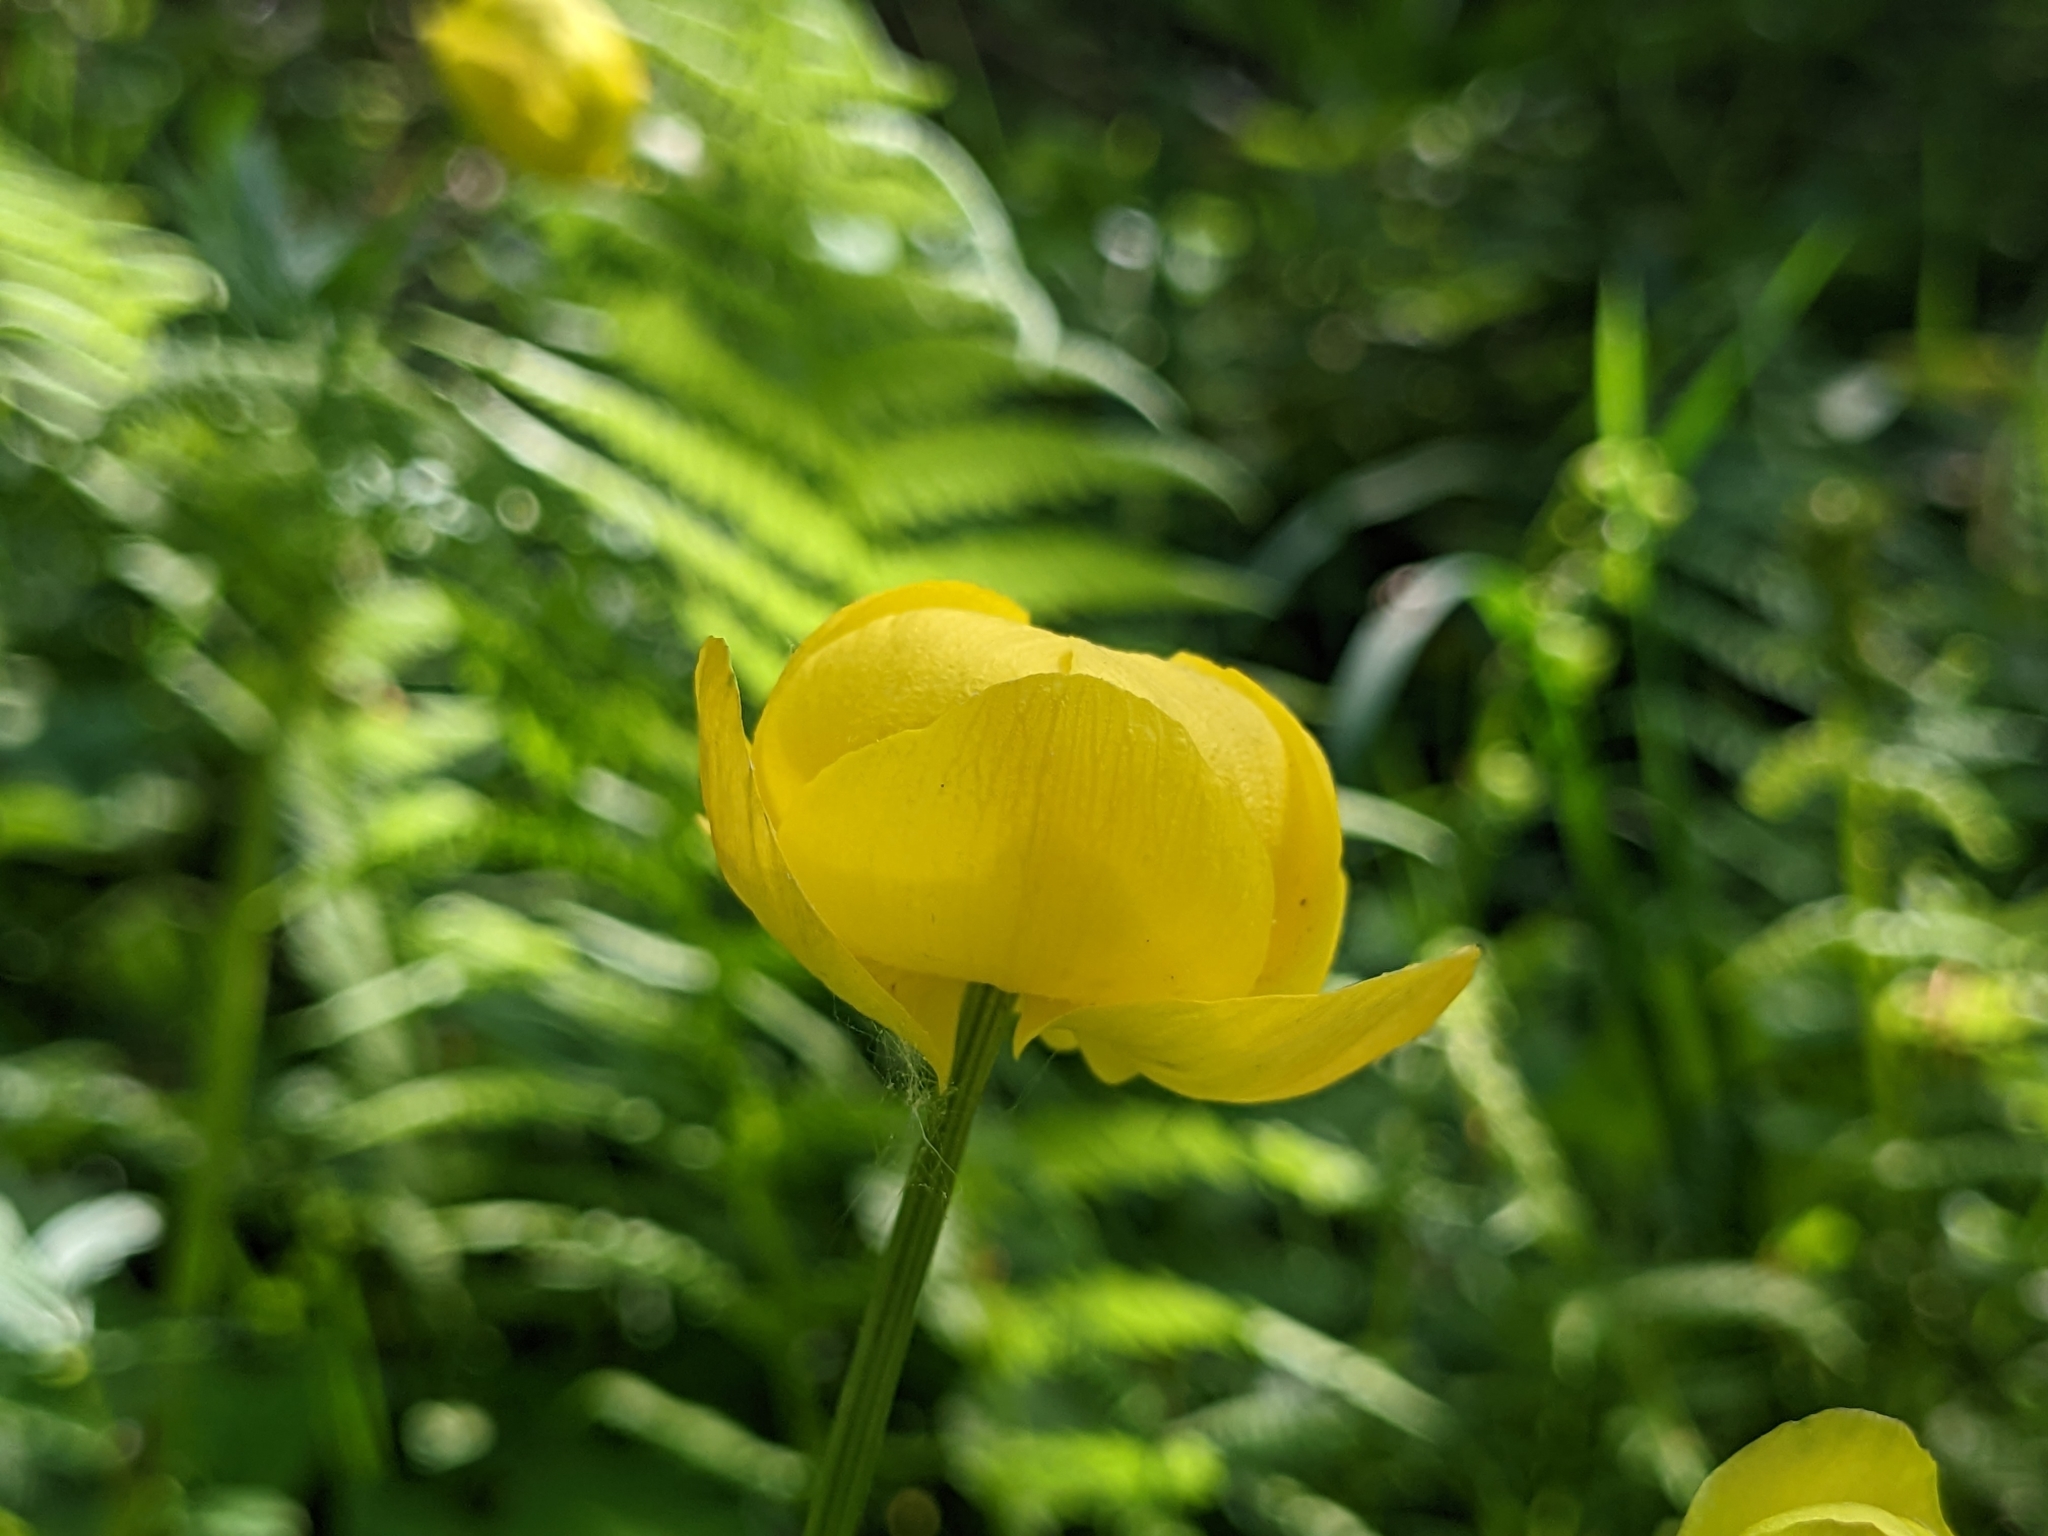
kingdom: Plantae
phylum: Tracheophyta
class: Magnoliopsida
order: Ranunculales
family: Ranunculaceae
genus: Trollius
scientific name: Trollius europaeus
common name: European globeflower
